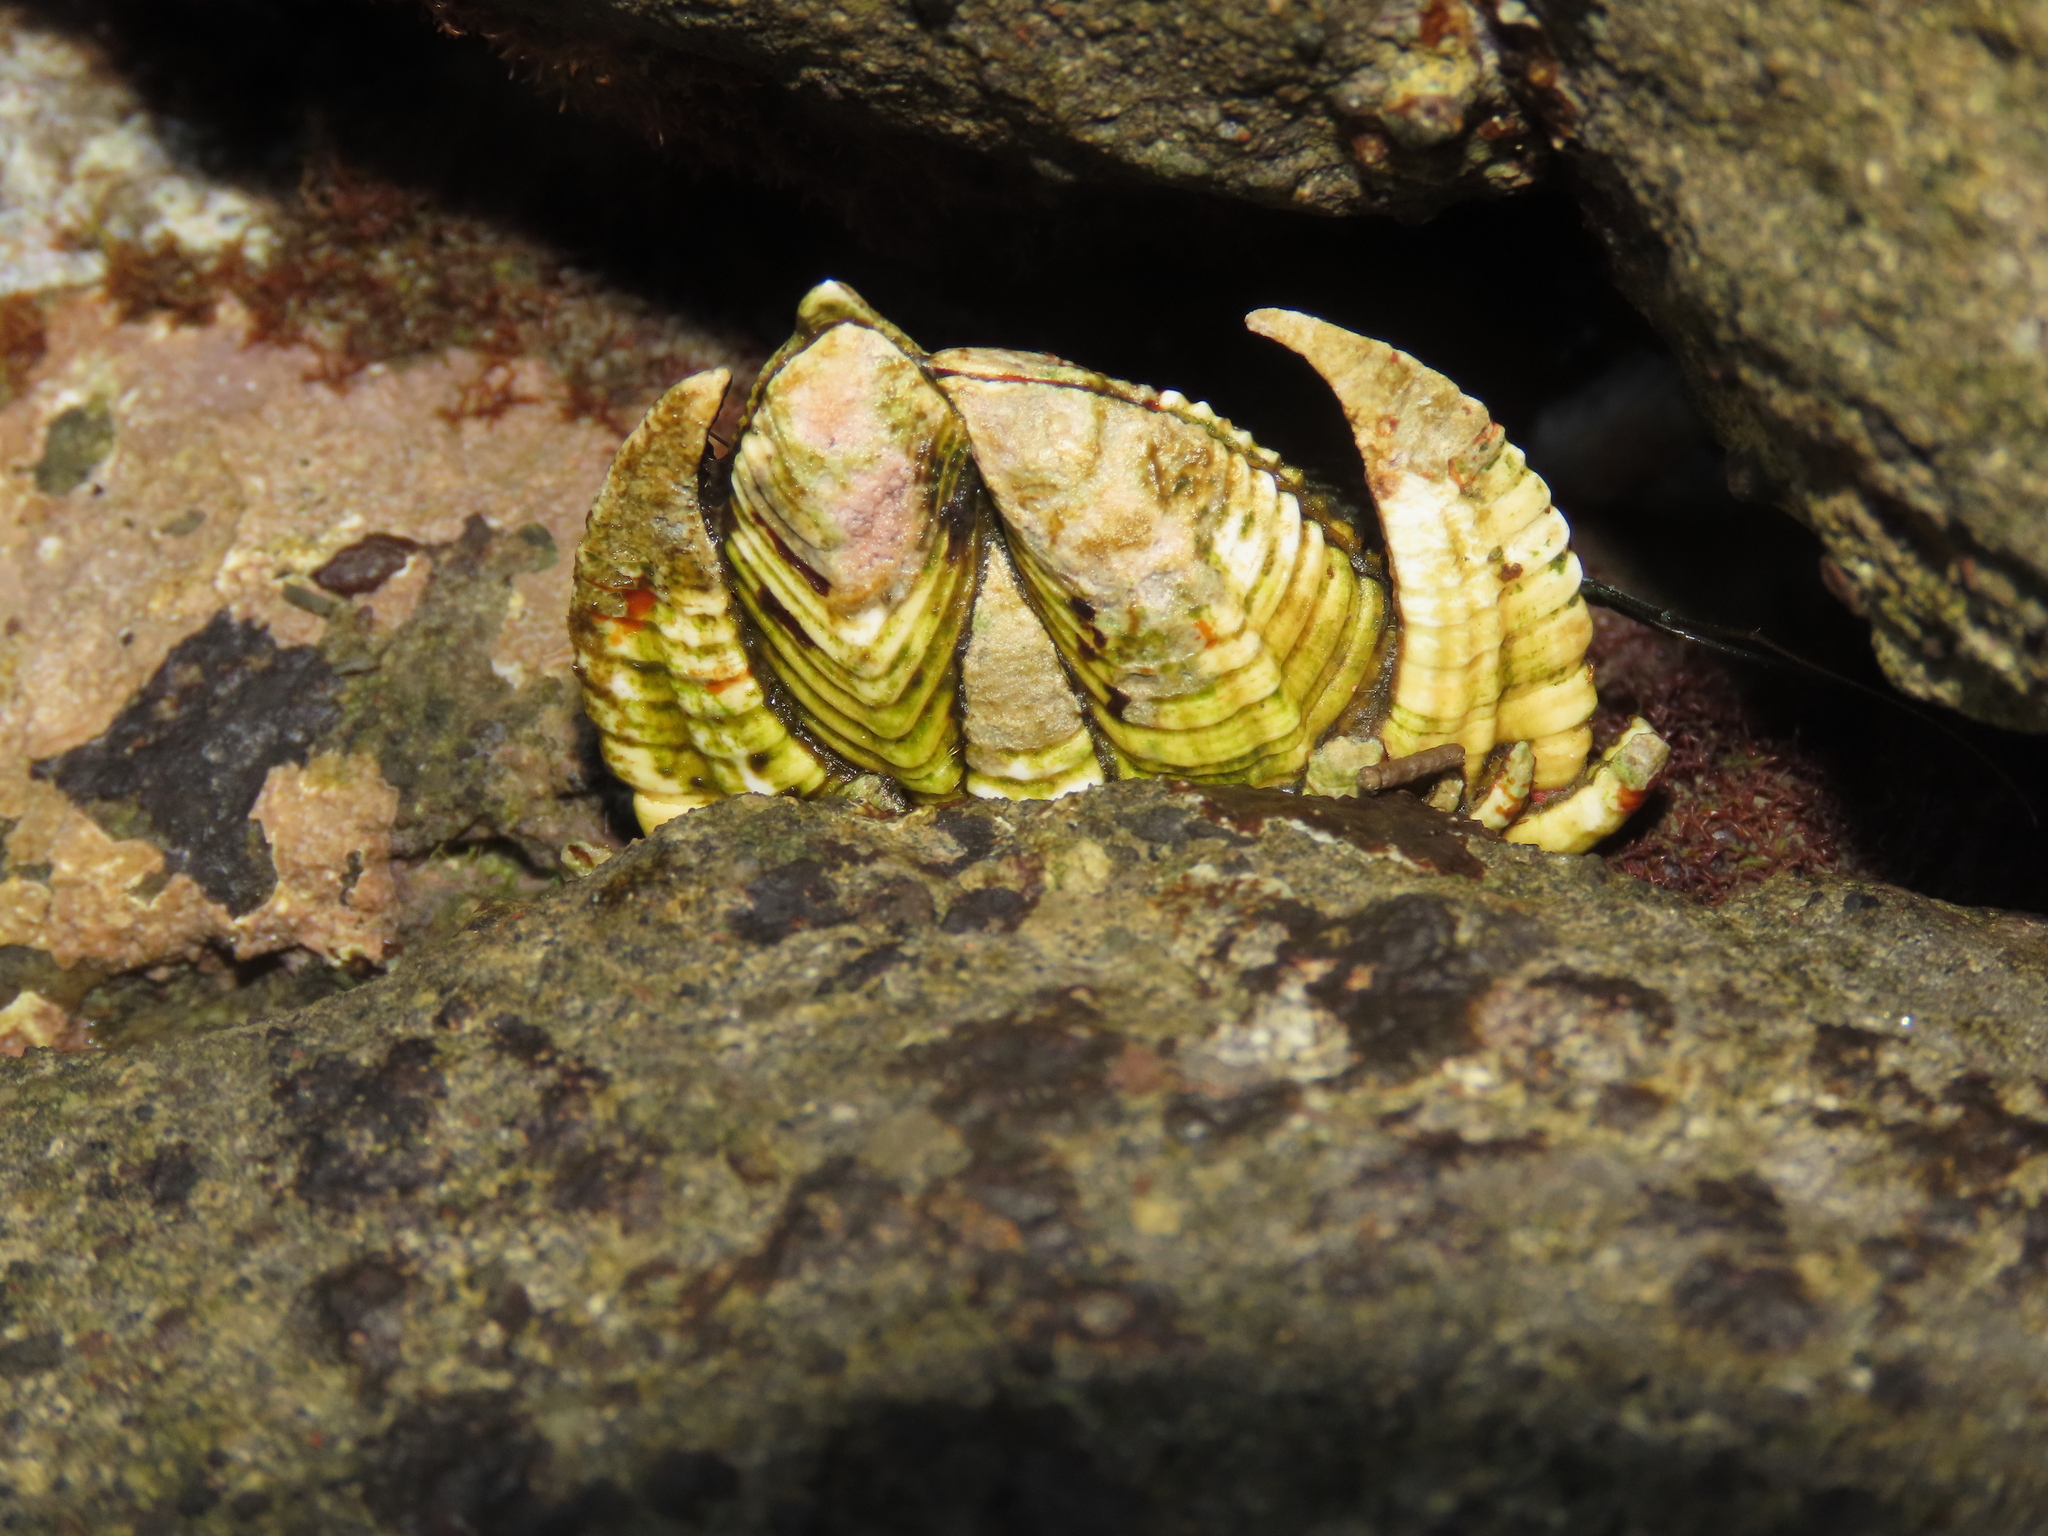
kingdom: Animalia
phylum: Arthropoda
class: Maxillopoda
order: Pedunculata
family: Pollicipedidae
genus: Capitulum
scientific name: Capitulum mitella
